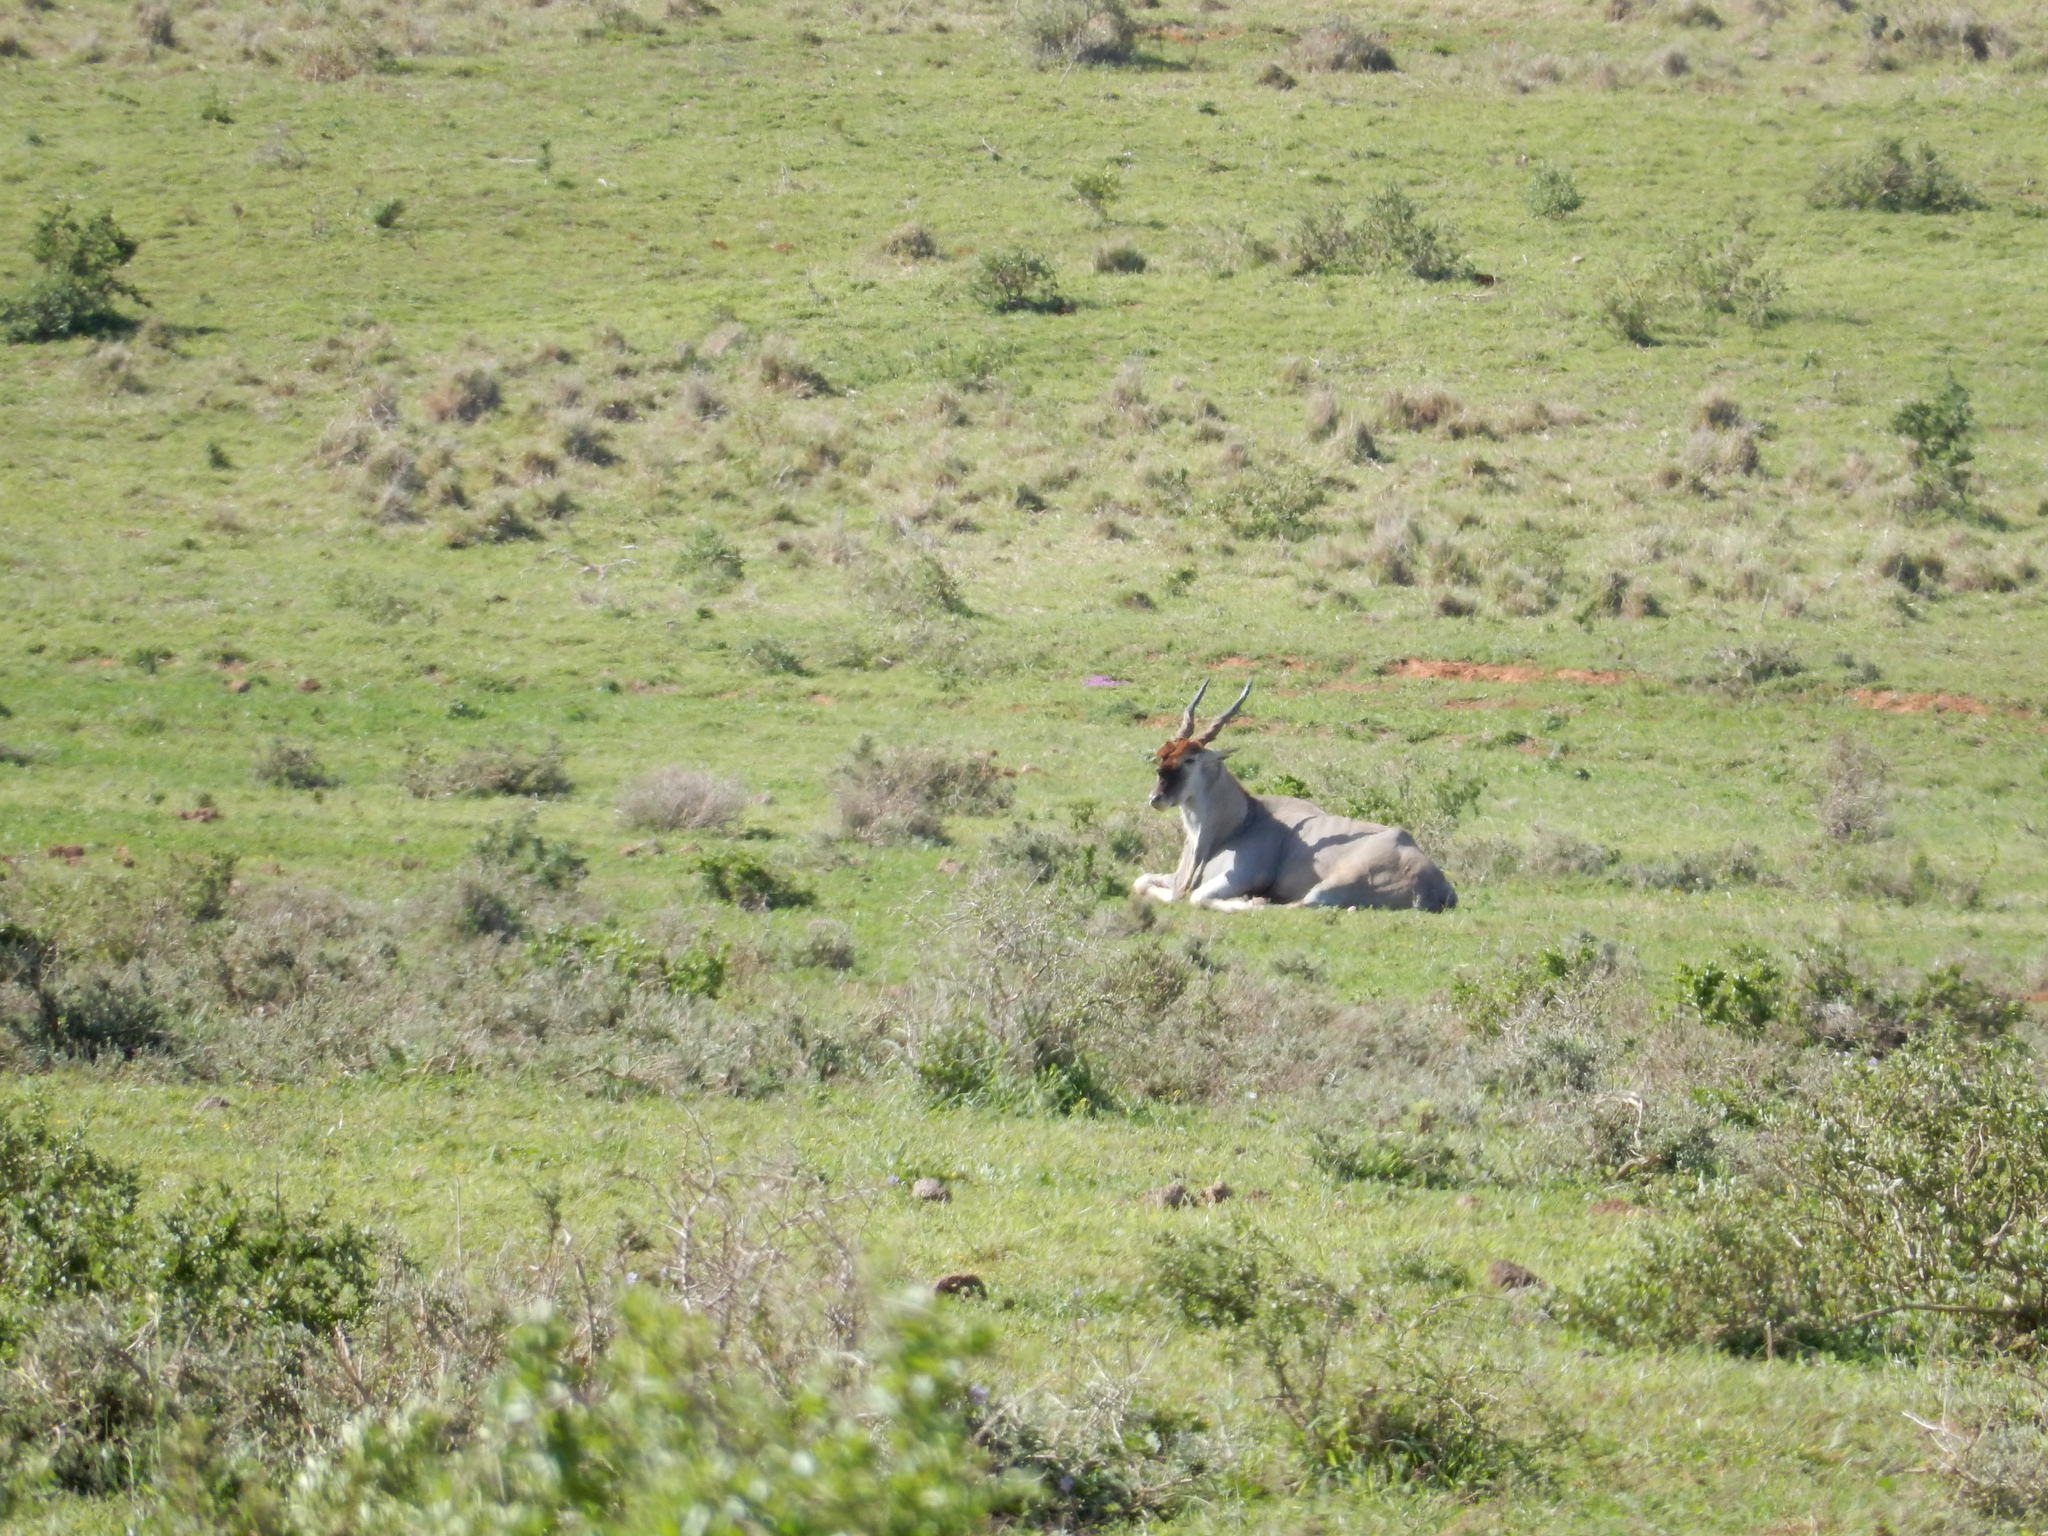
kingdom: Animalia
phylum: Chordata
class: Mammalia
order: Artiodactyla
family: Bovidae
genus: Taurotragus
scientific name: Taurotragus oryx
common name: Common eland
